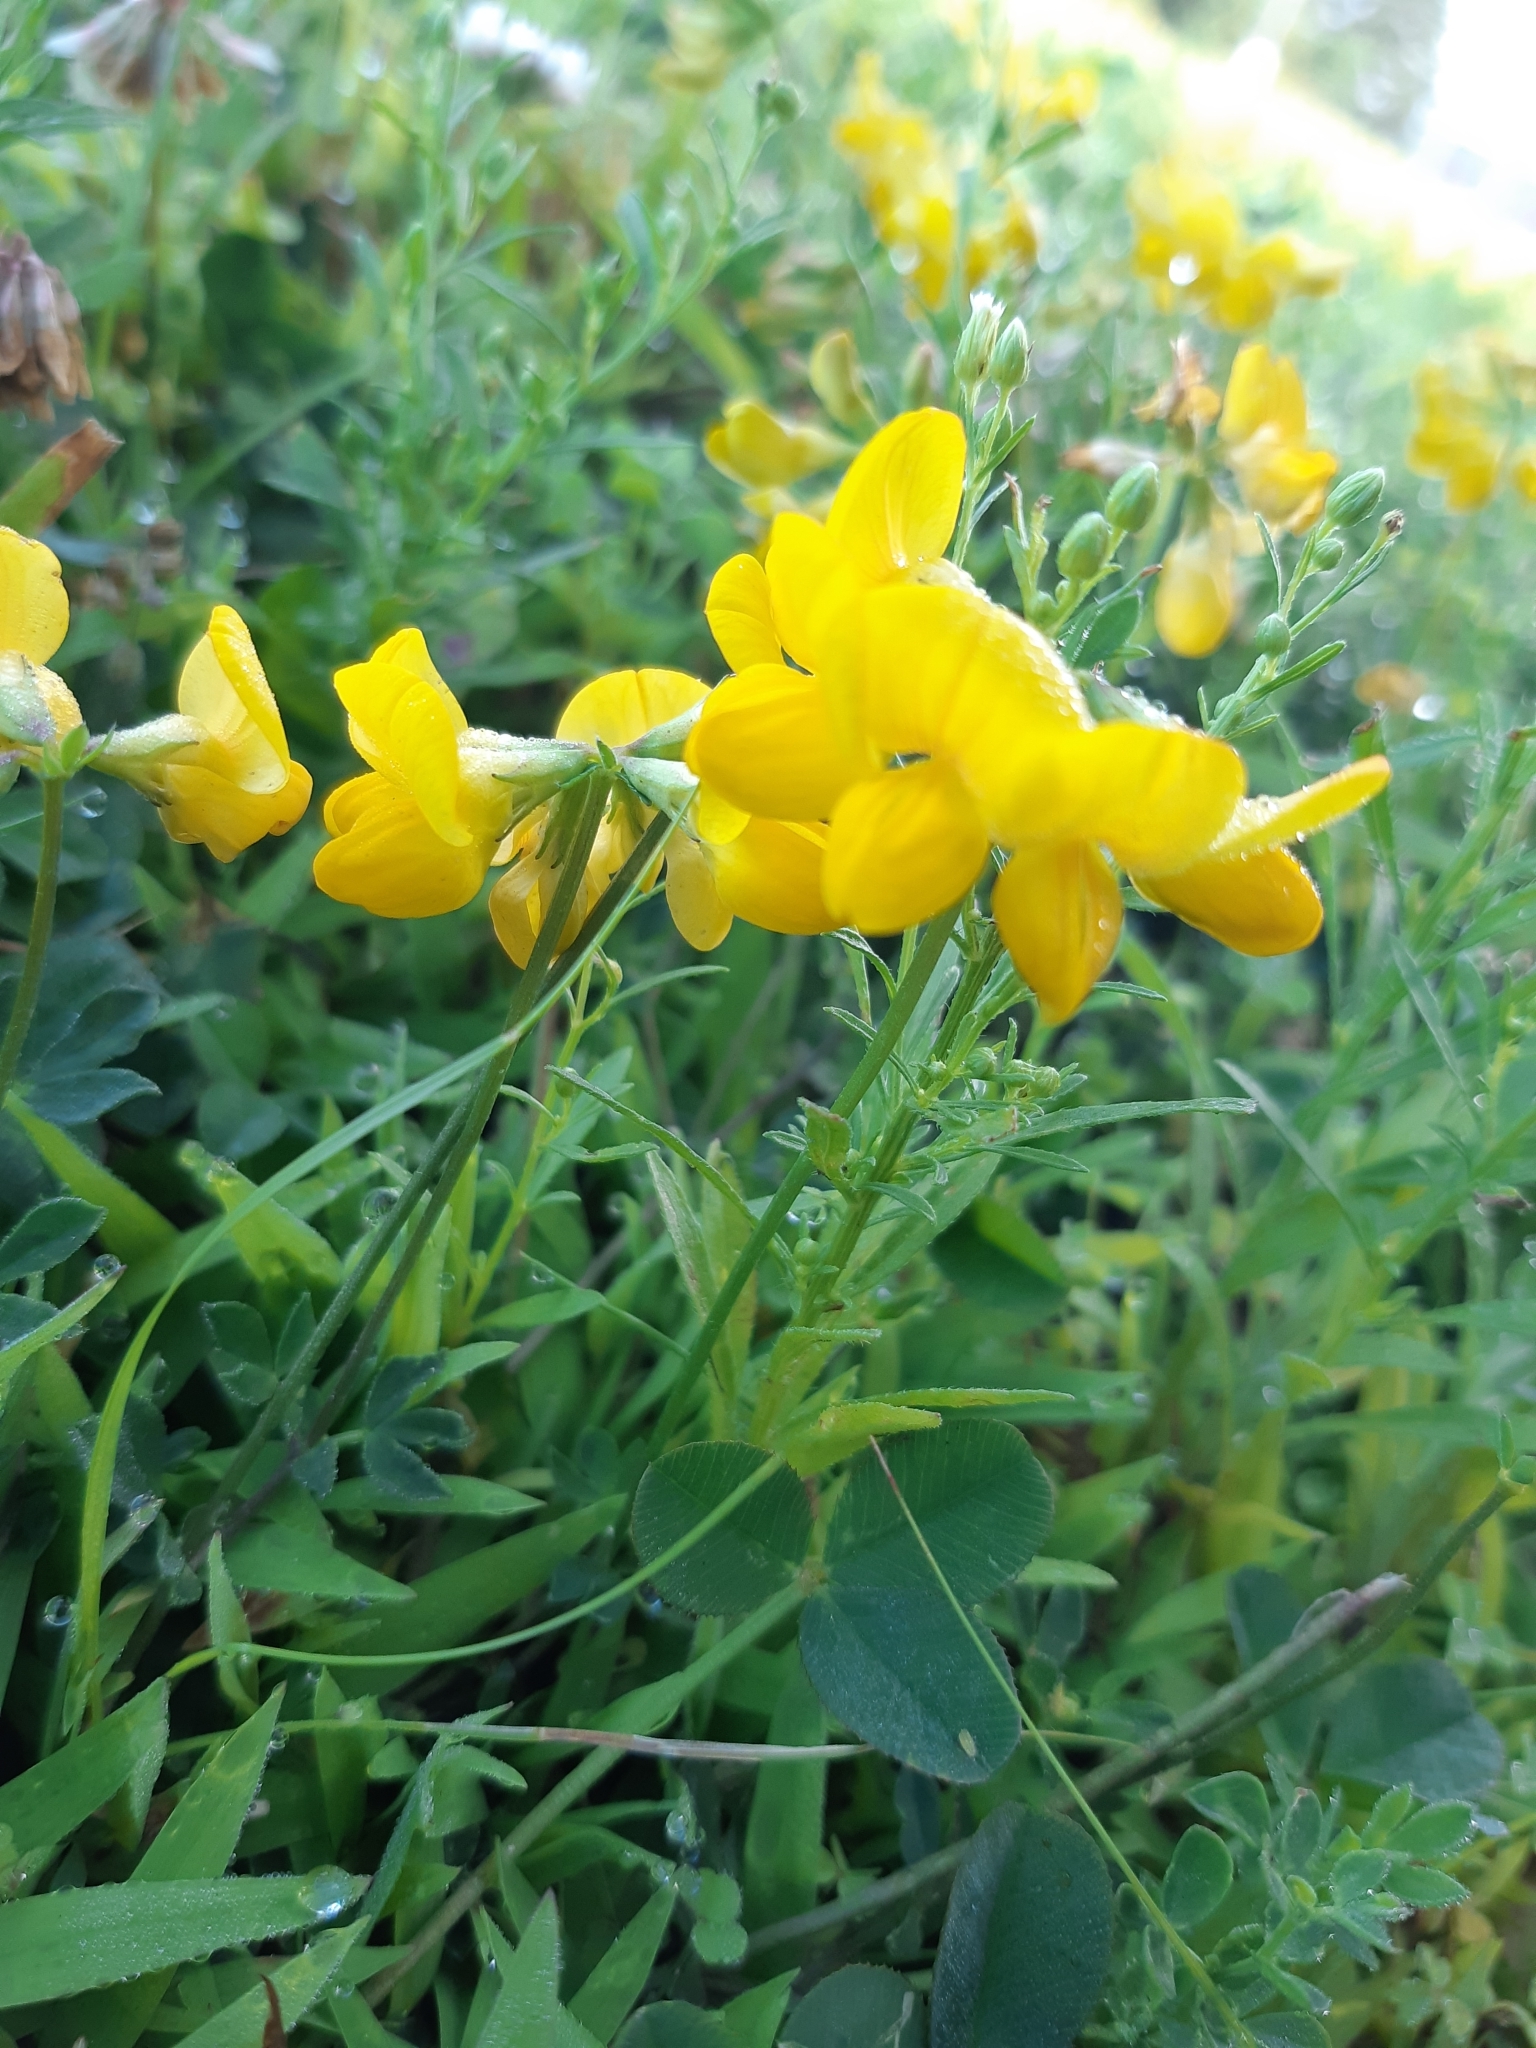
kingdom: Plantae
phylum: Tracheophyta
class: Magnoliopsida
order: Fabales
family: Fabaceae
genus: Lotus
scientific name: Lotus corniculatus
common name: Common bird's-foot-trefoil
